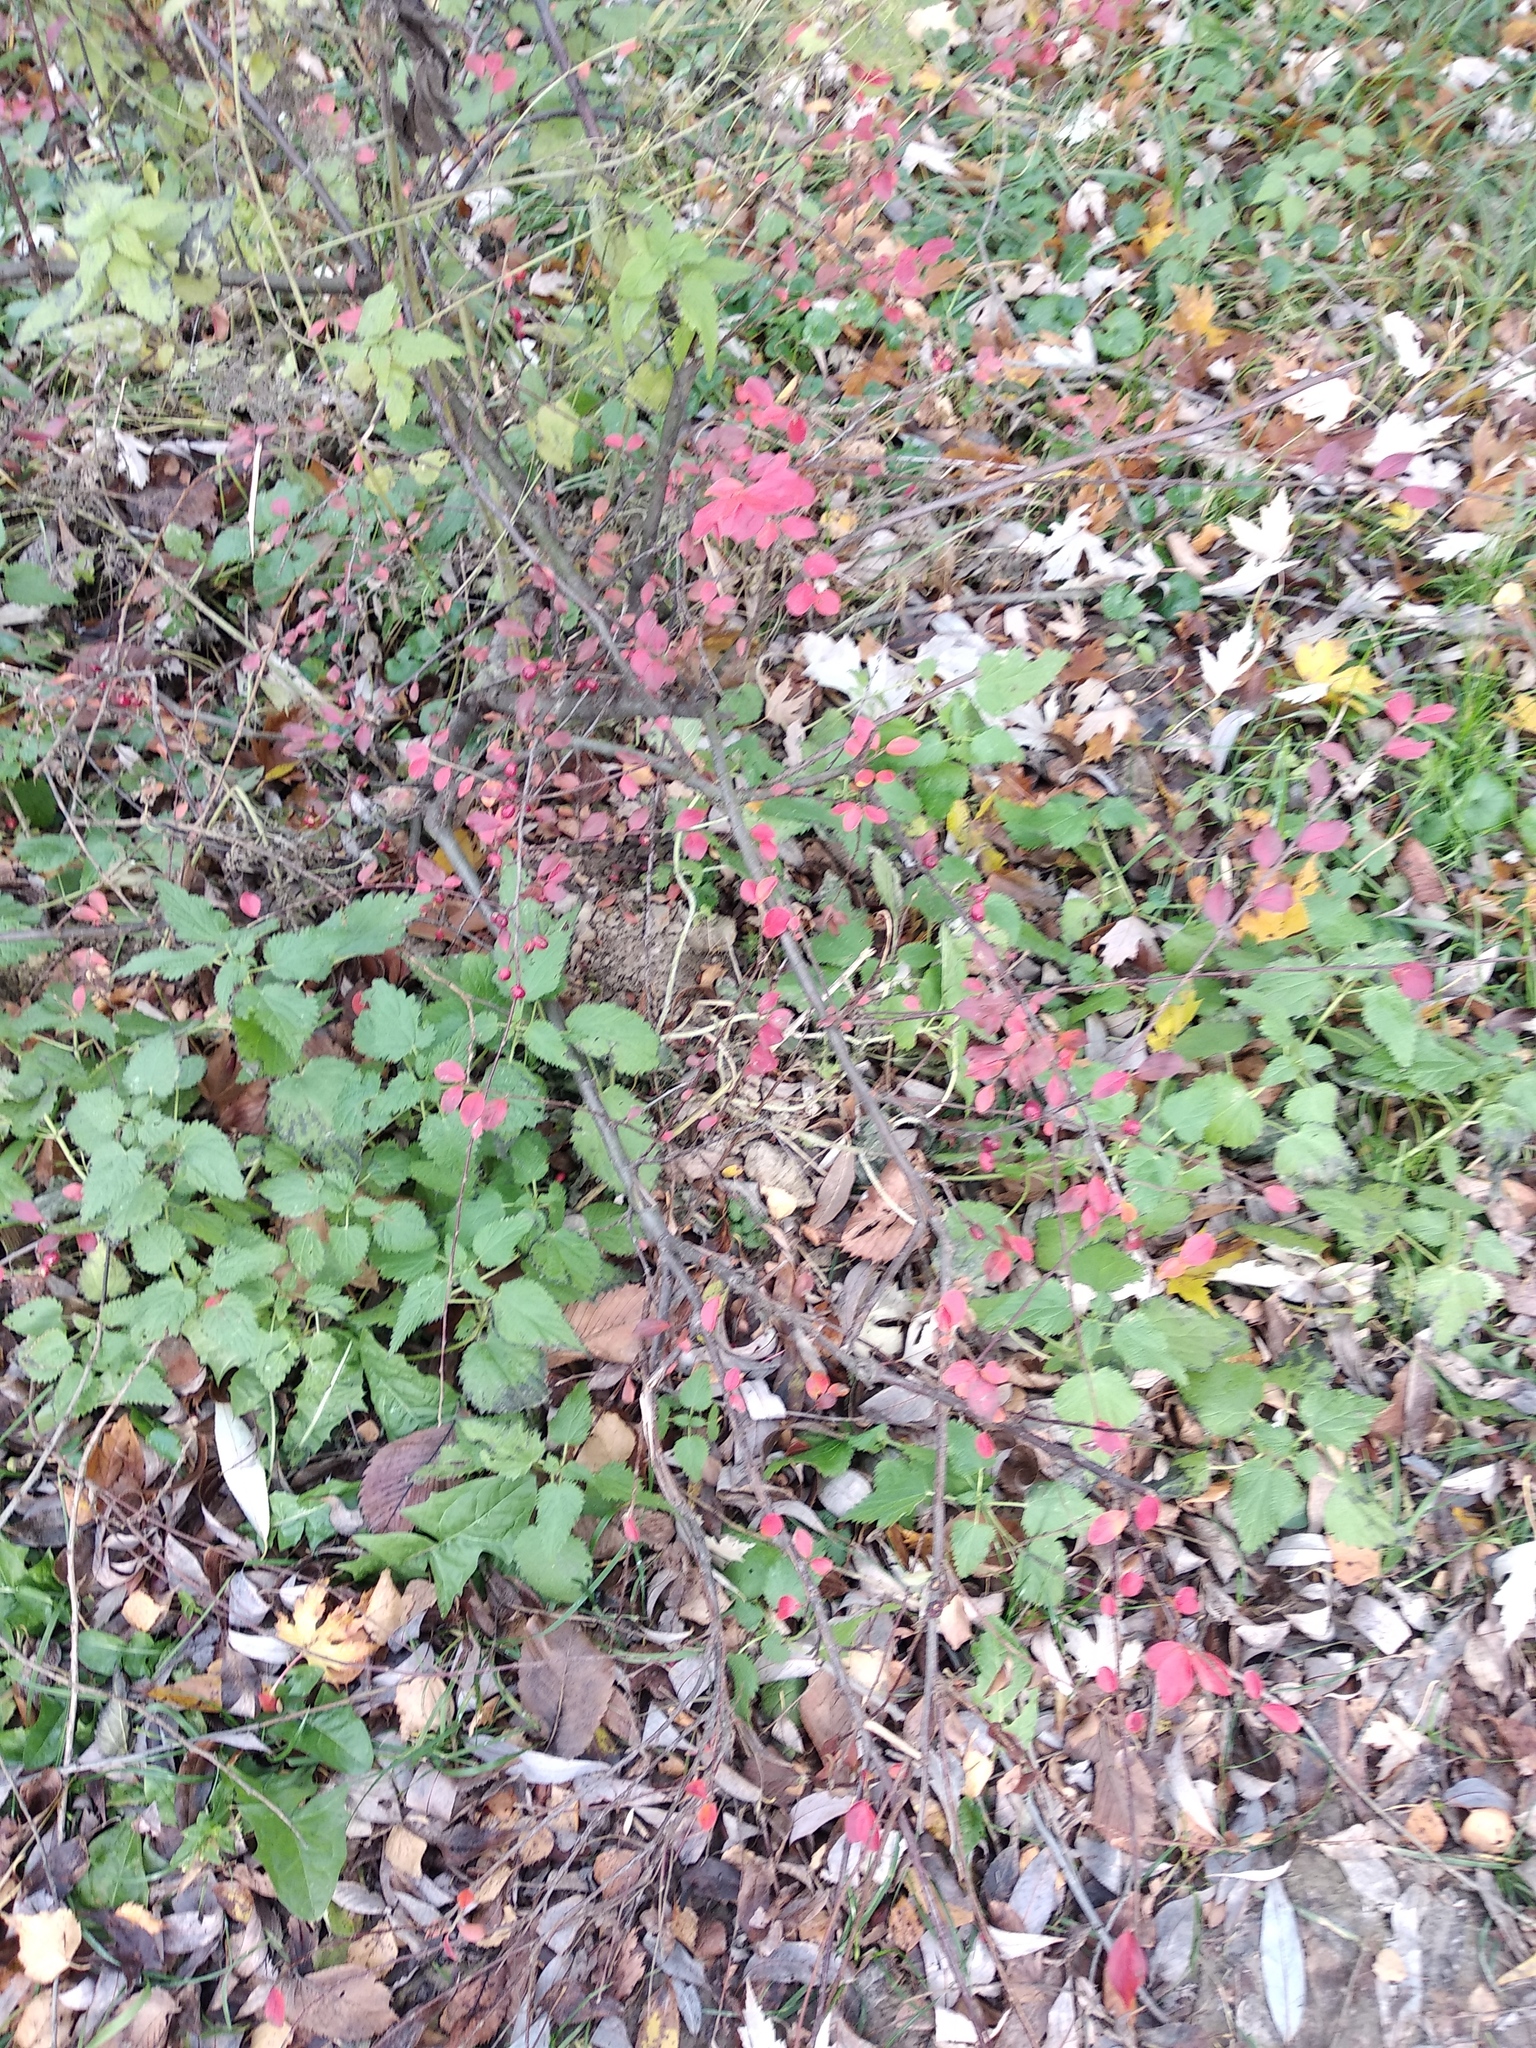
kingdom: Plantae
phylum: Tracheophyta
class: Magnoliopsida
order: Rosales
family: Rosaceae
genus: Cotoneaster
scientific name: Cotoneaster acutifolius
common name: Peking cotoneaster
